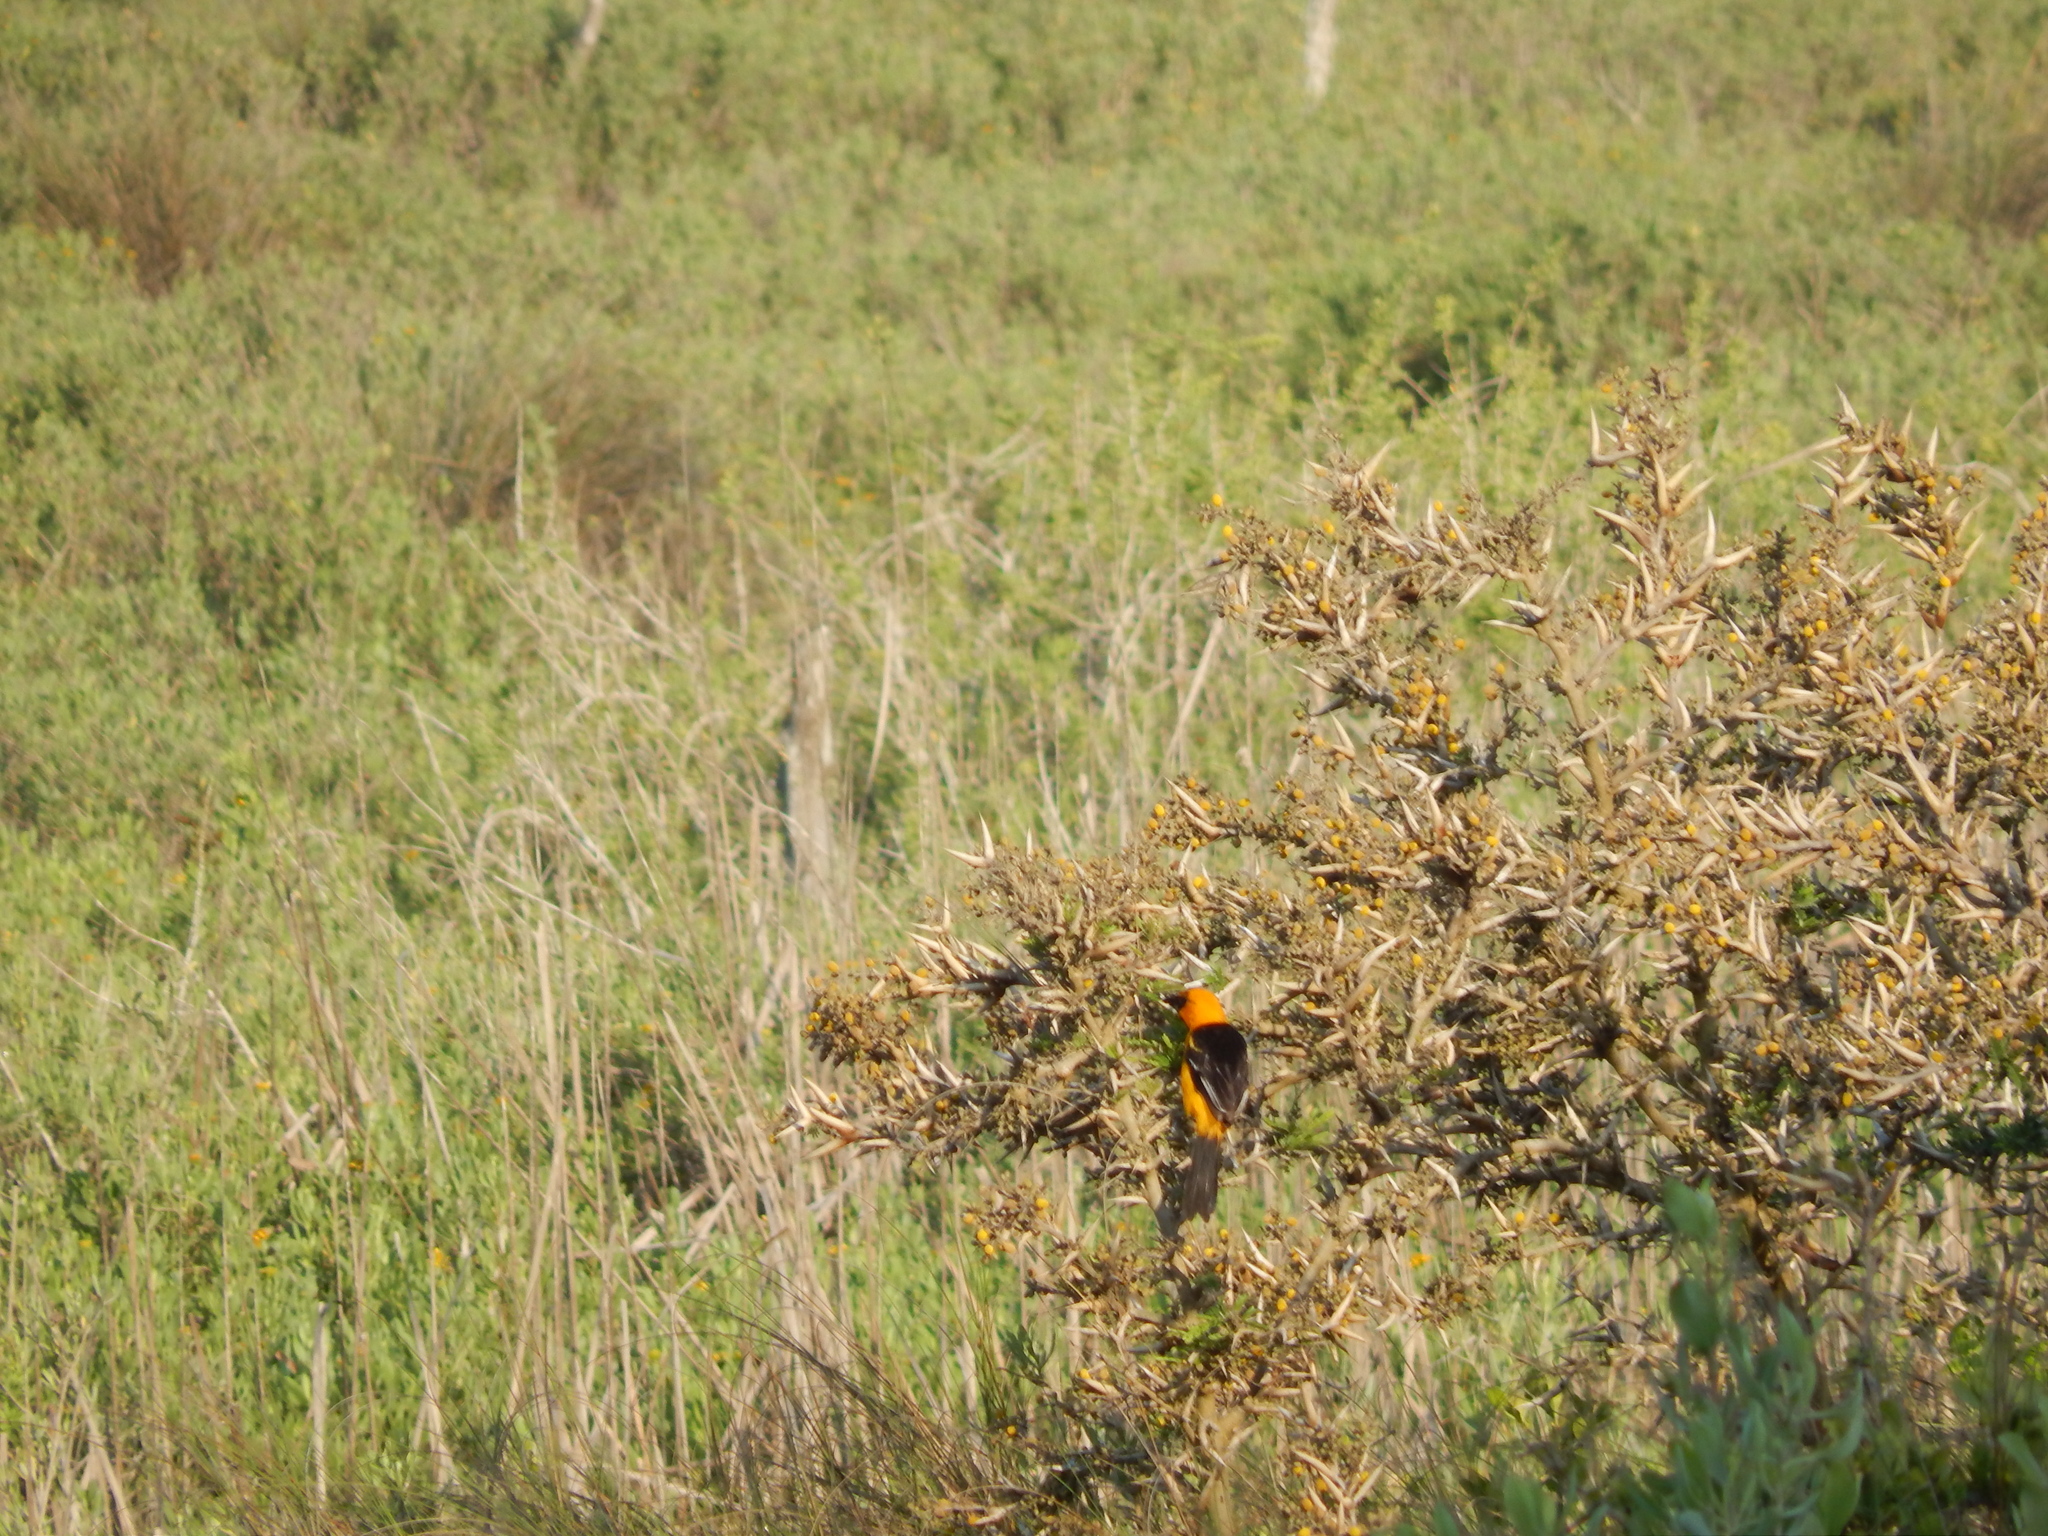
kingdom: Animalia
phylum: Chordata
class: Aves
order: Passeriformes
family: Icteridae
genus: Icterus
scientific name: Icterus gularis
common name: Altamira oriole
